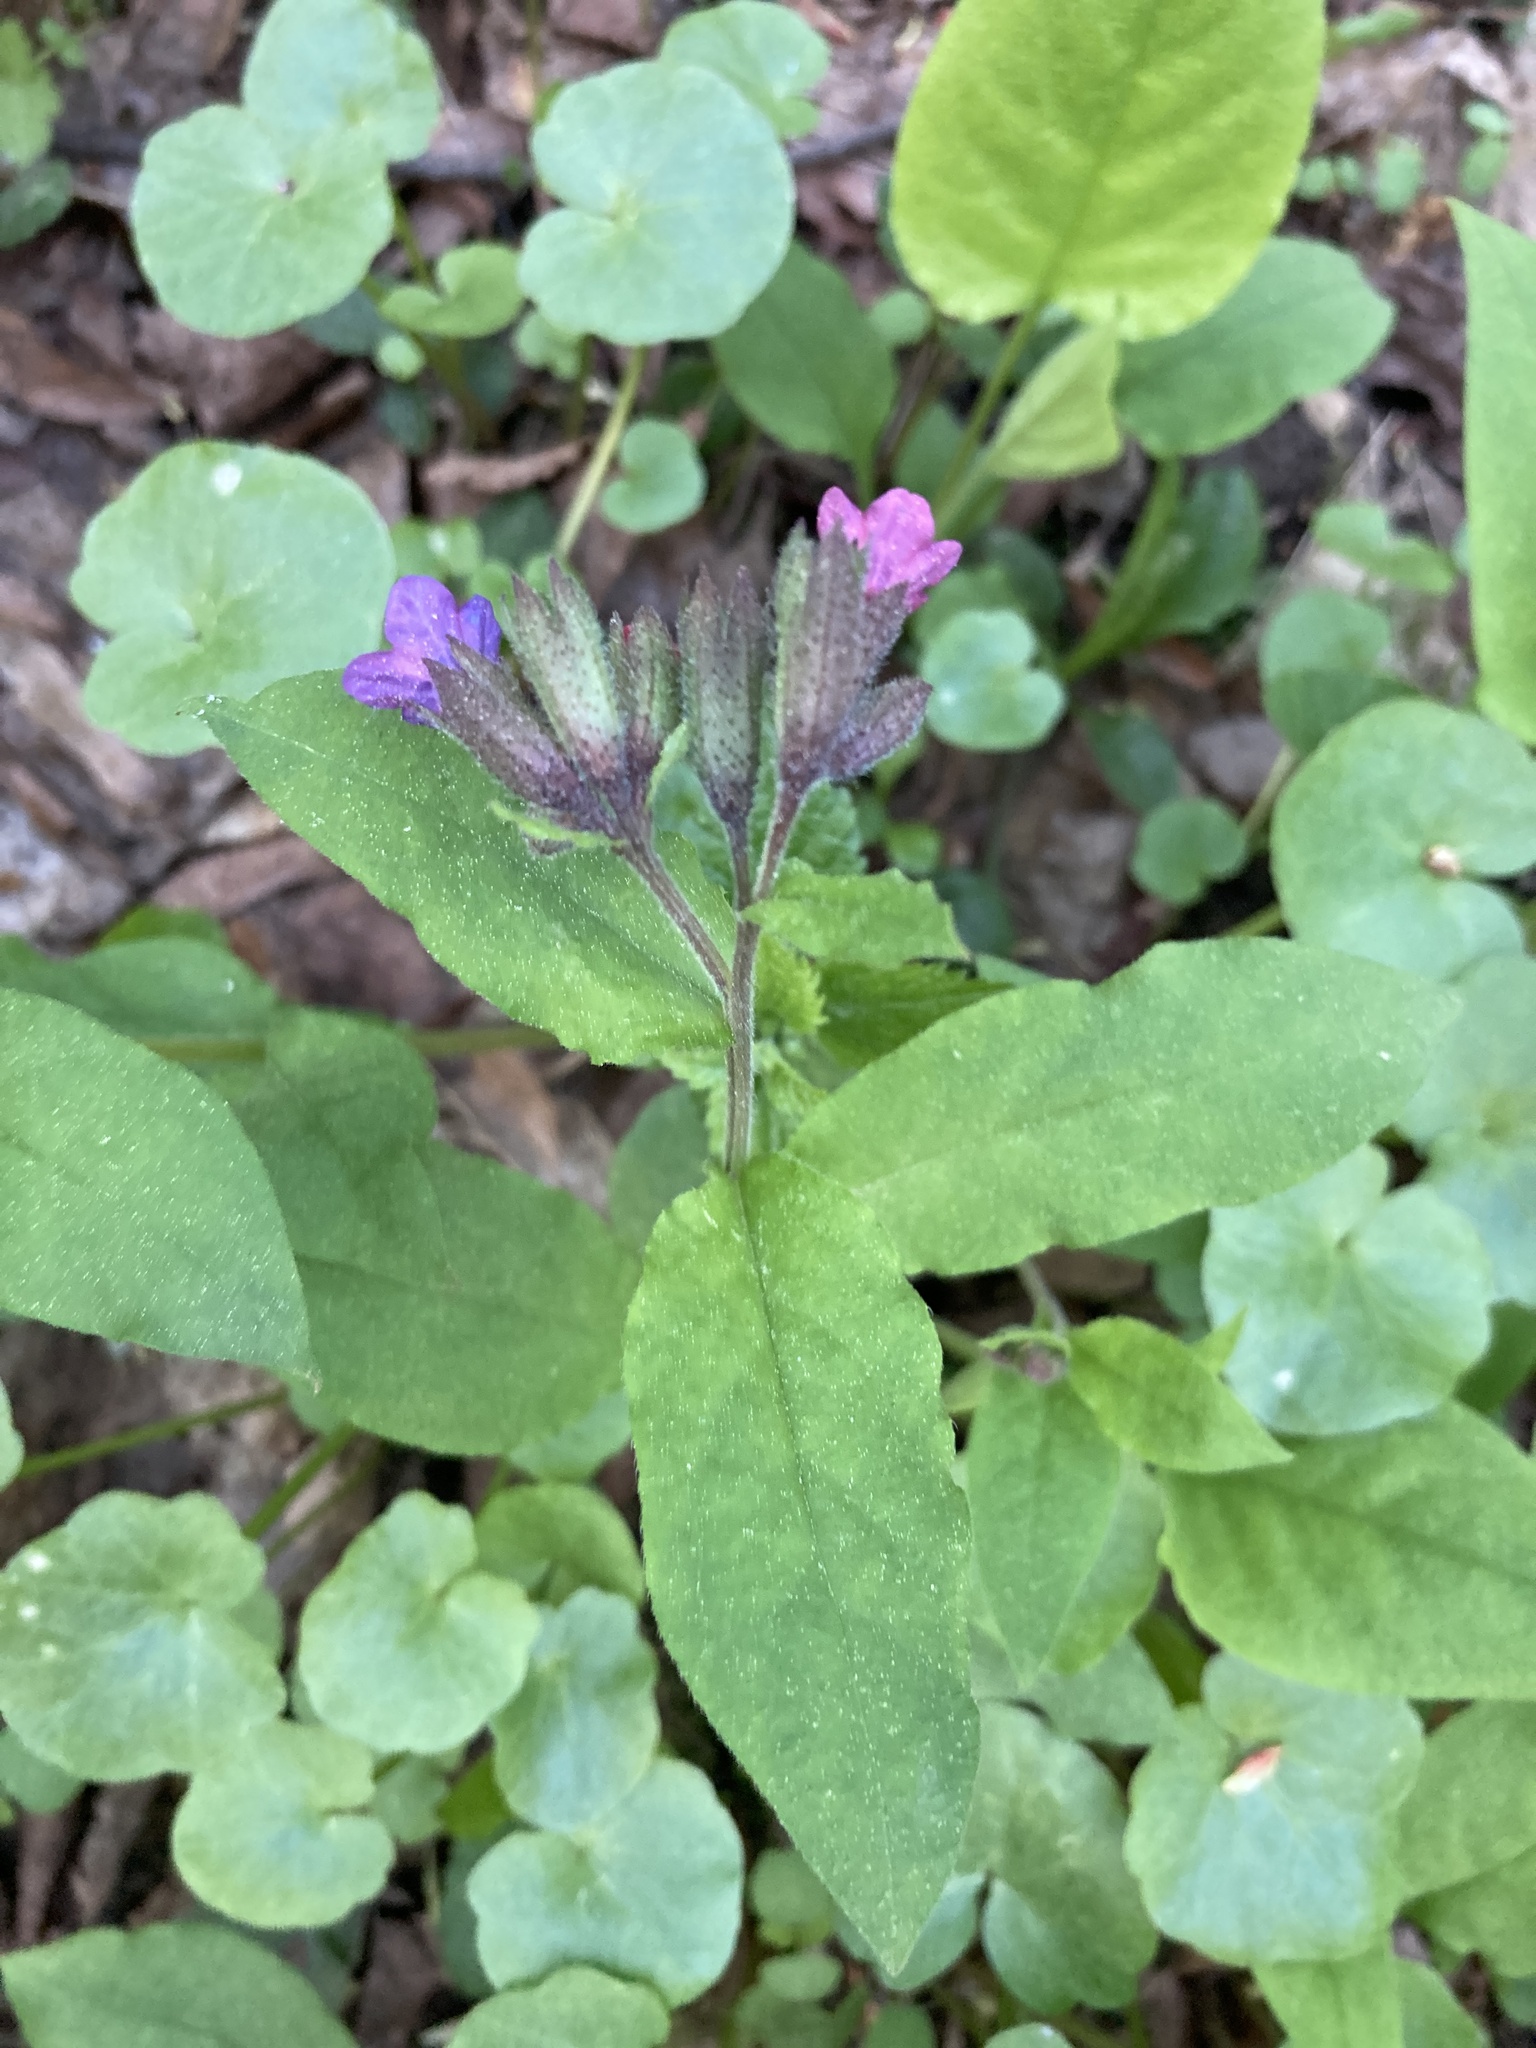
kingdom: Plantae
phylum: Tracheophyta
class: Magnoliopsida
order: Boraginales
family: Boraginaceae
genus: Pulmonaria
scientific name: Pulmonaria obscura
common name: Suffolk lungwort
